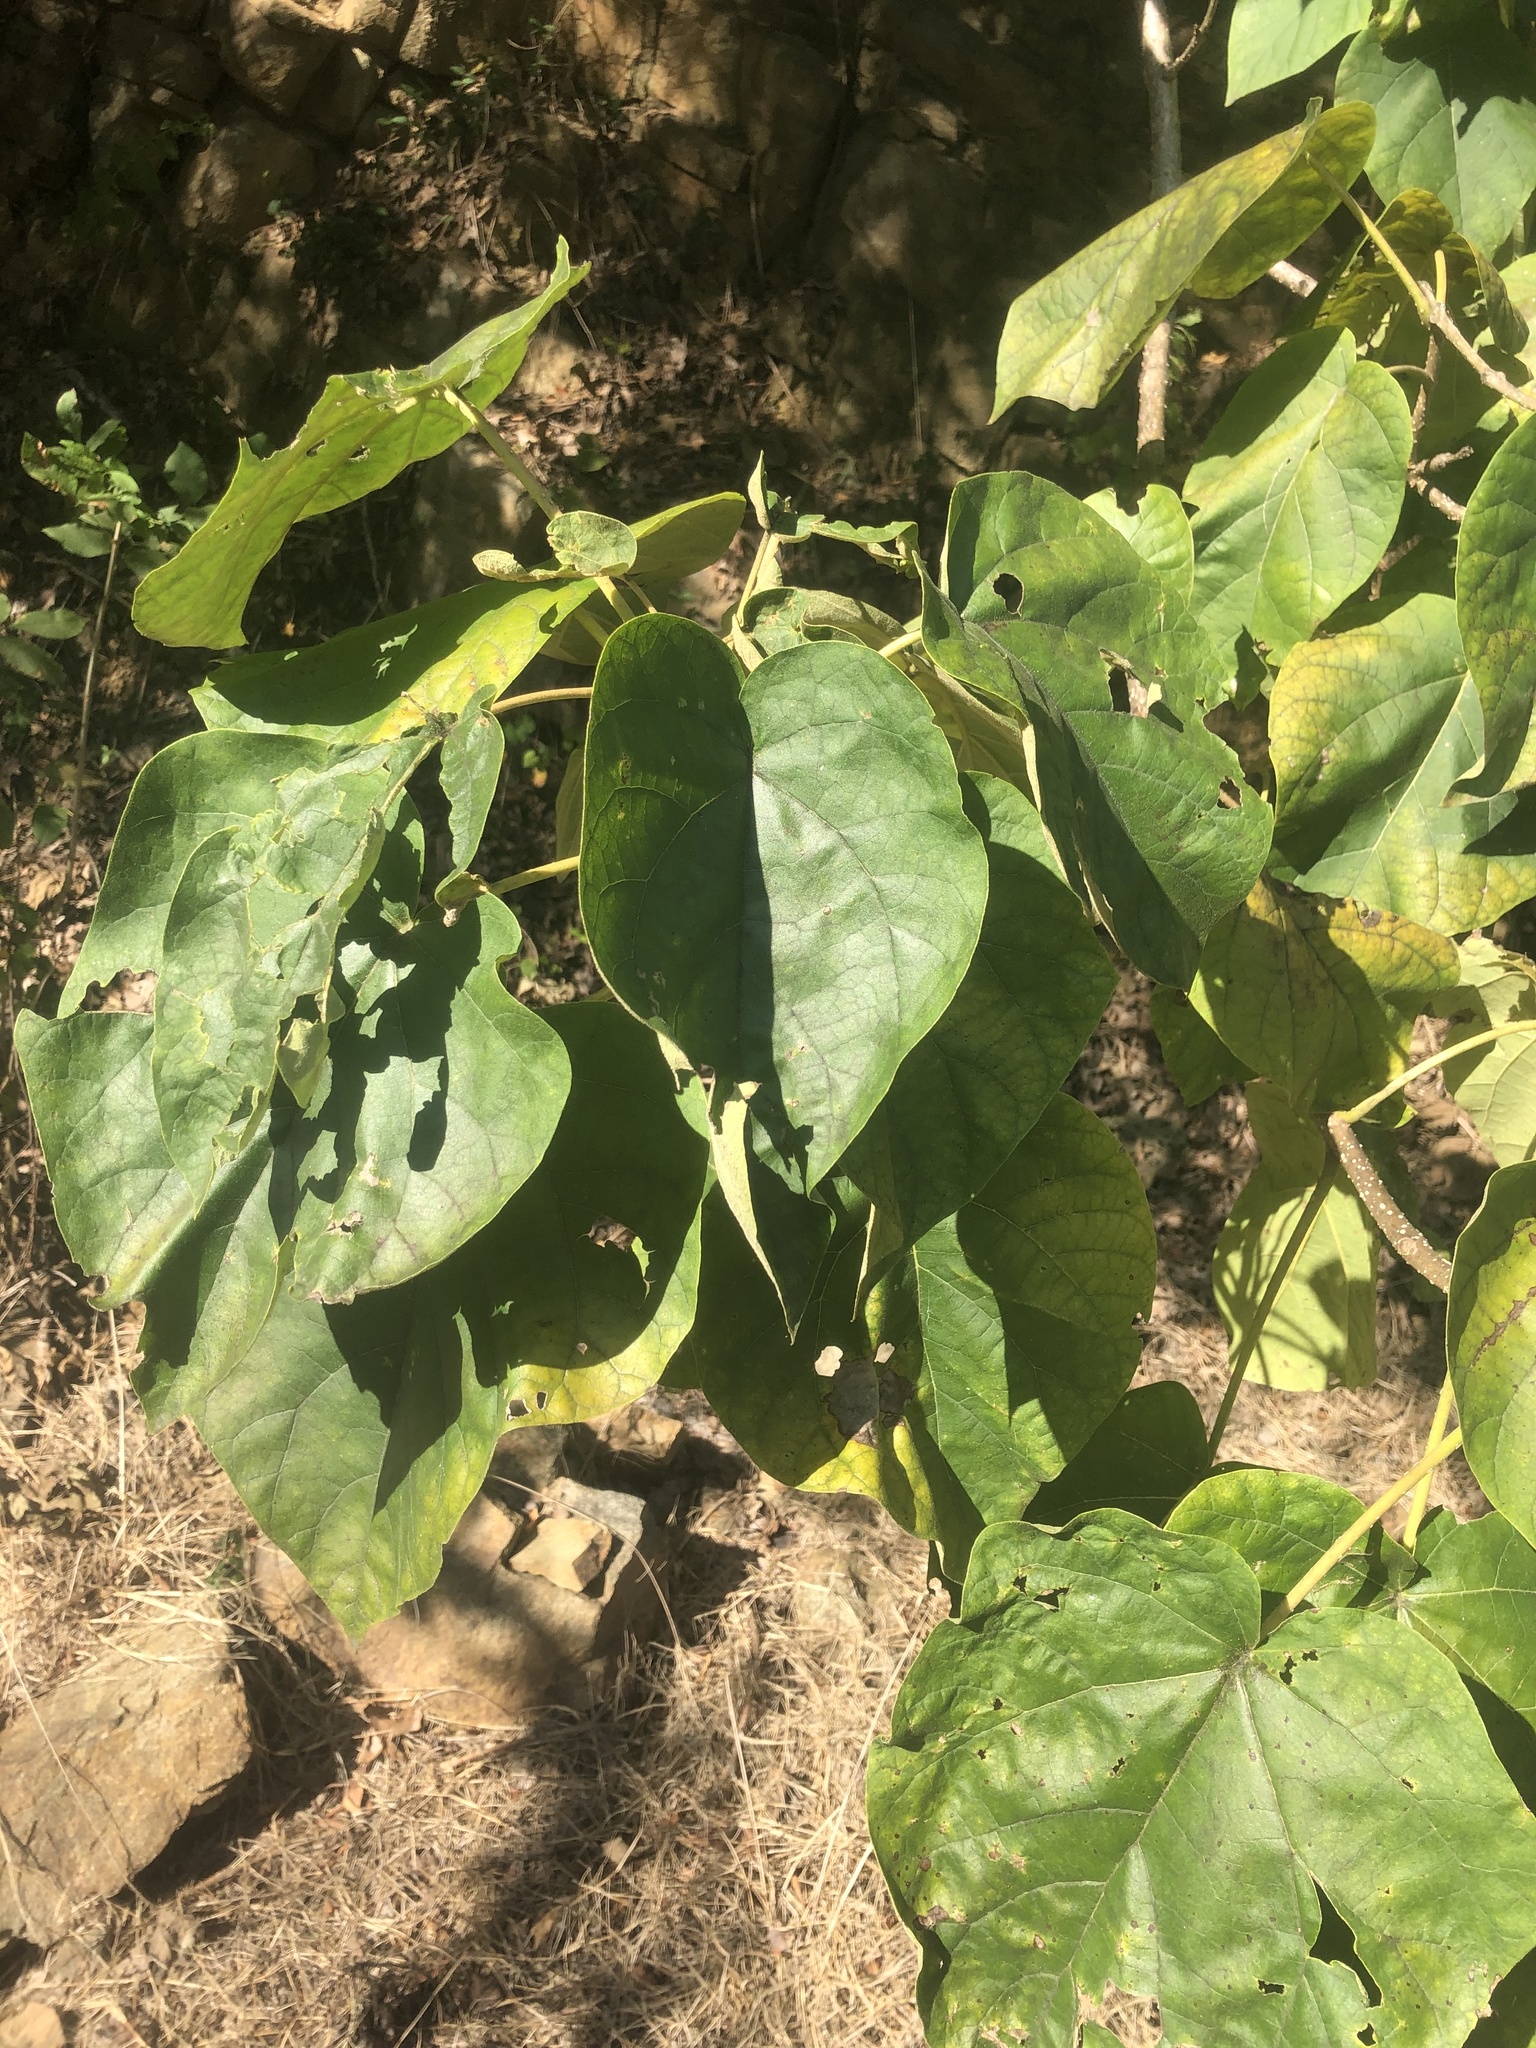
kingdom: Plantae
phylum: Tracheophyta
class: Magnoliopsida
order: Lamiales
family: Paulowniaceae
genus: Paulownia
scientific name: Paulownia tomentosa
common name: Foxglove-tree
